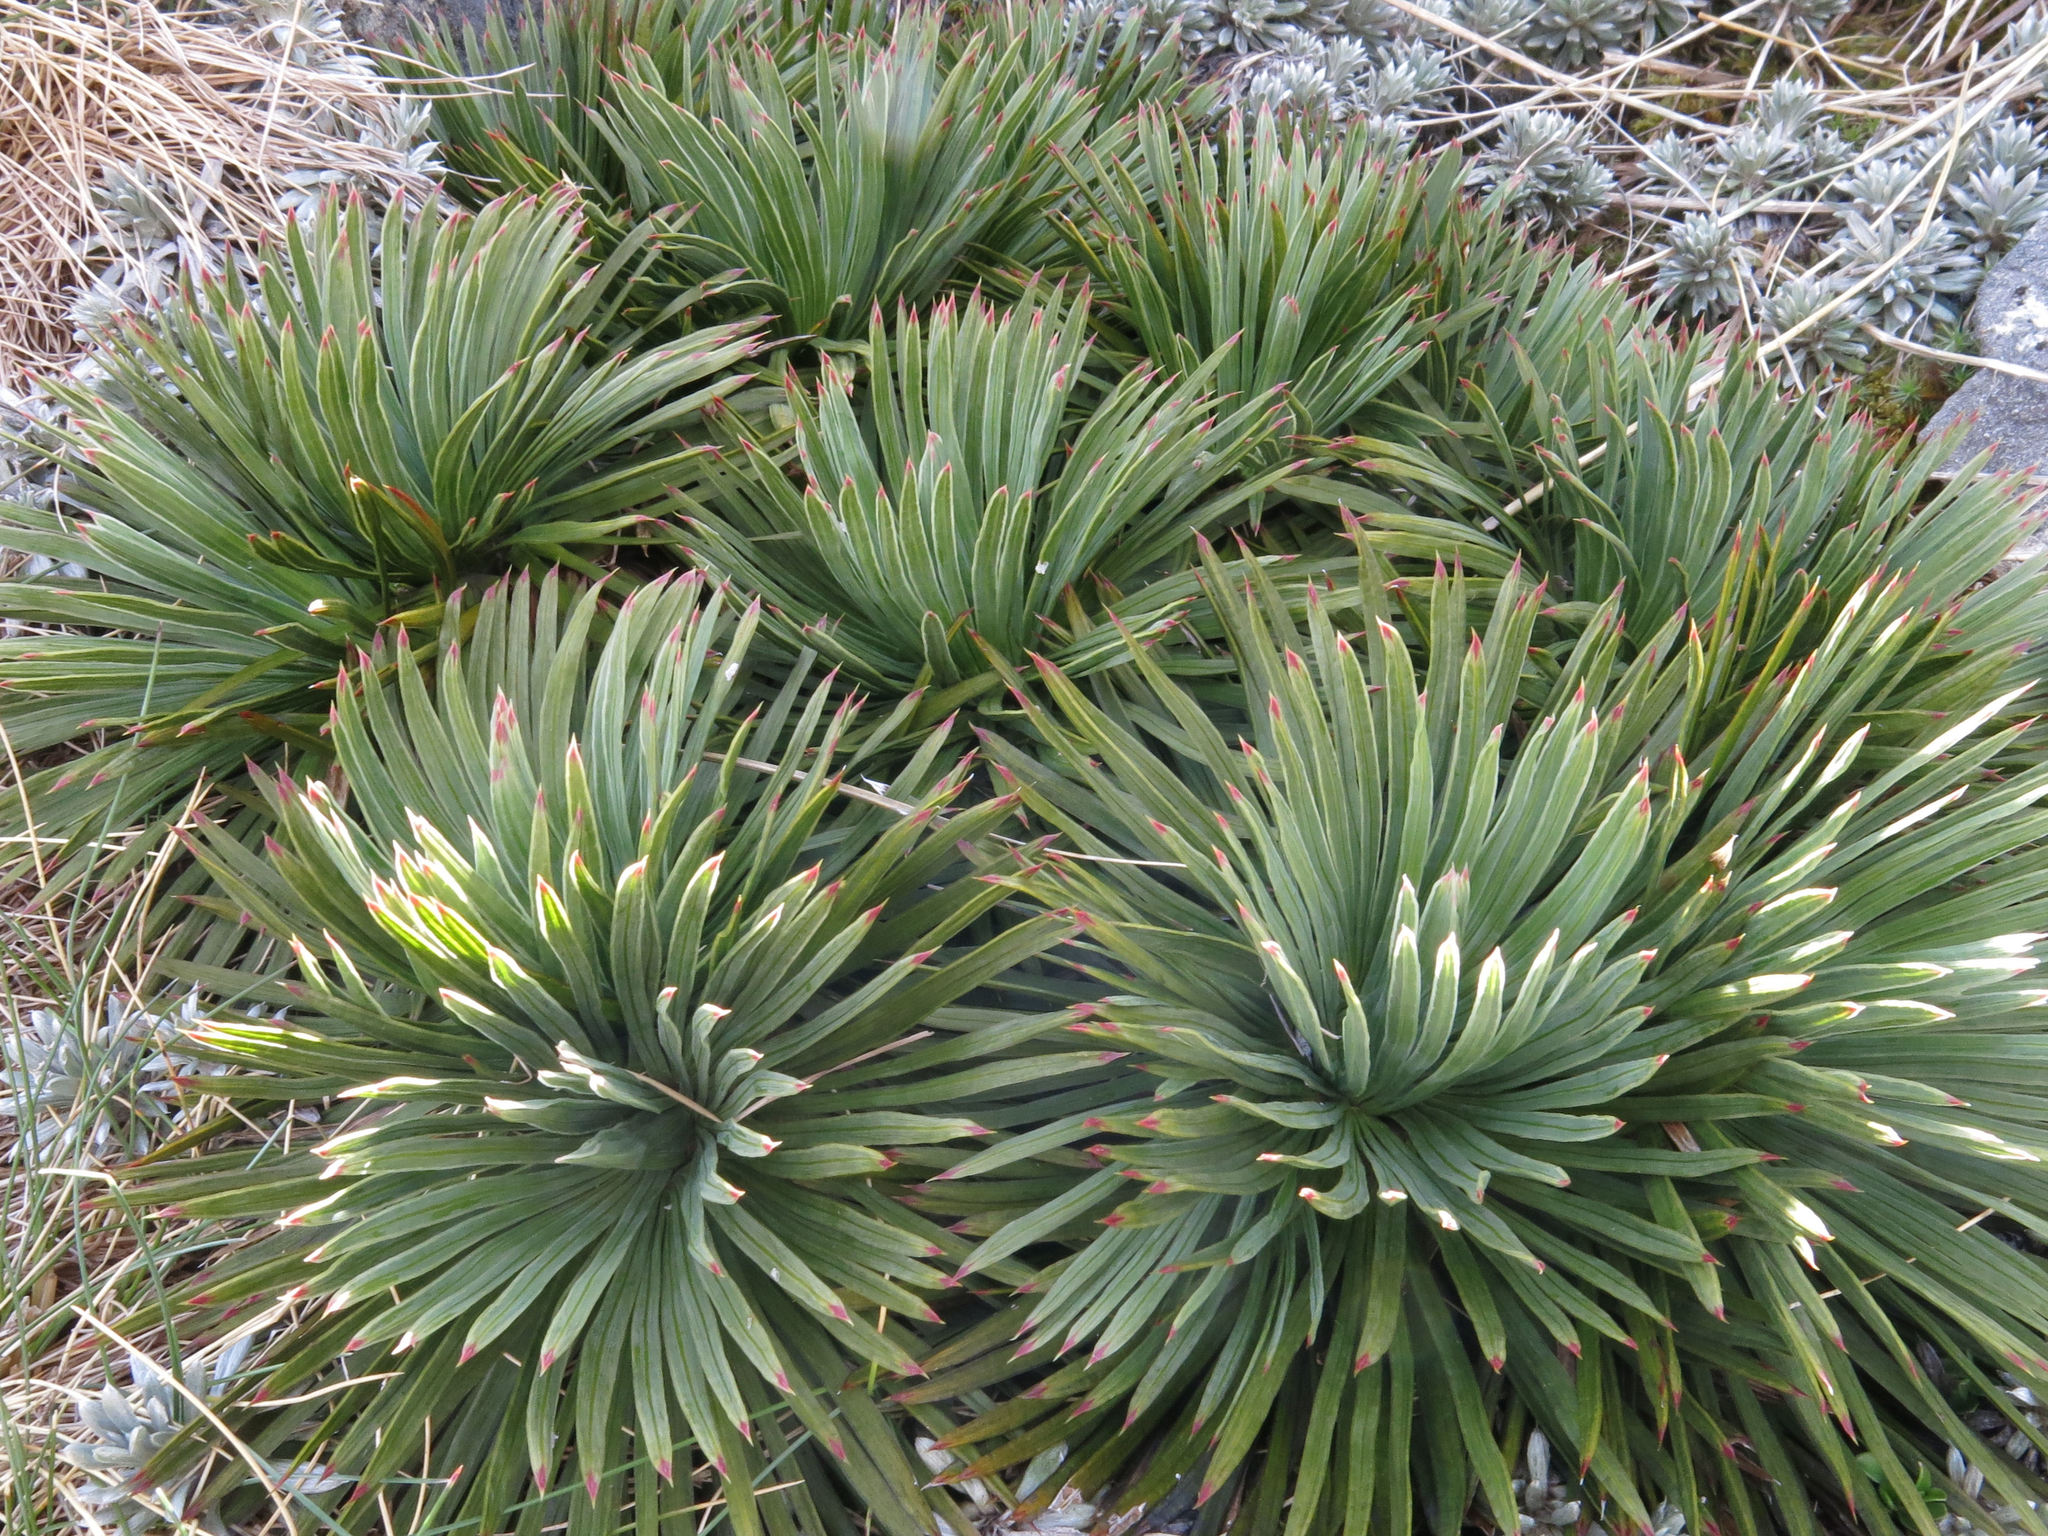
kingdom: Plantae
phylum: Tracheophyta
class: Magnoliopsida
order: Apiales
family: Apiaceae
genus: Aciphylla
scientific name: Aciphylla spedenii
